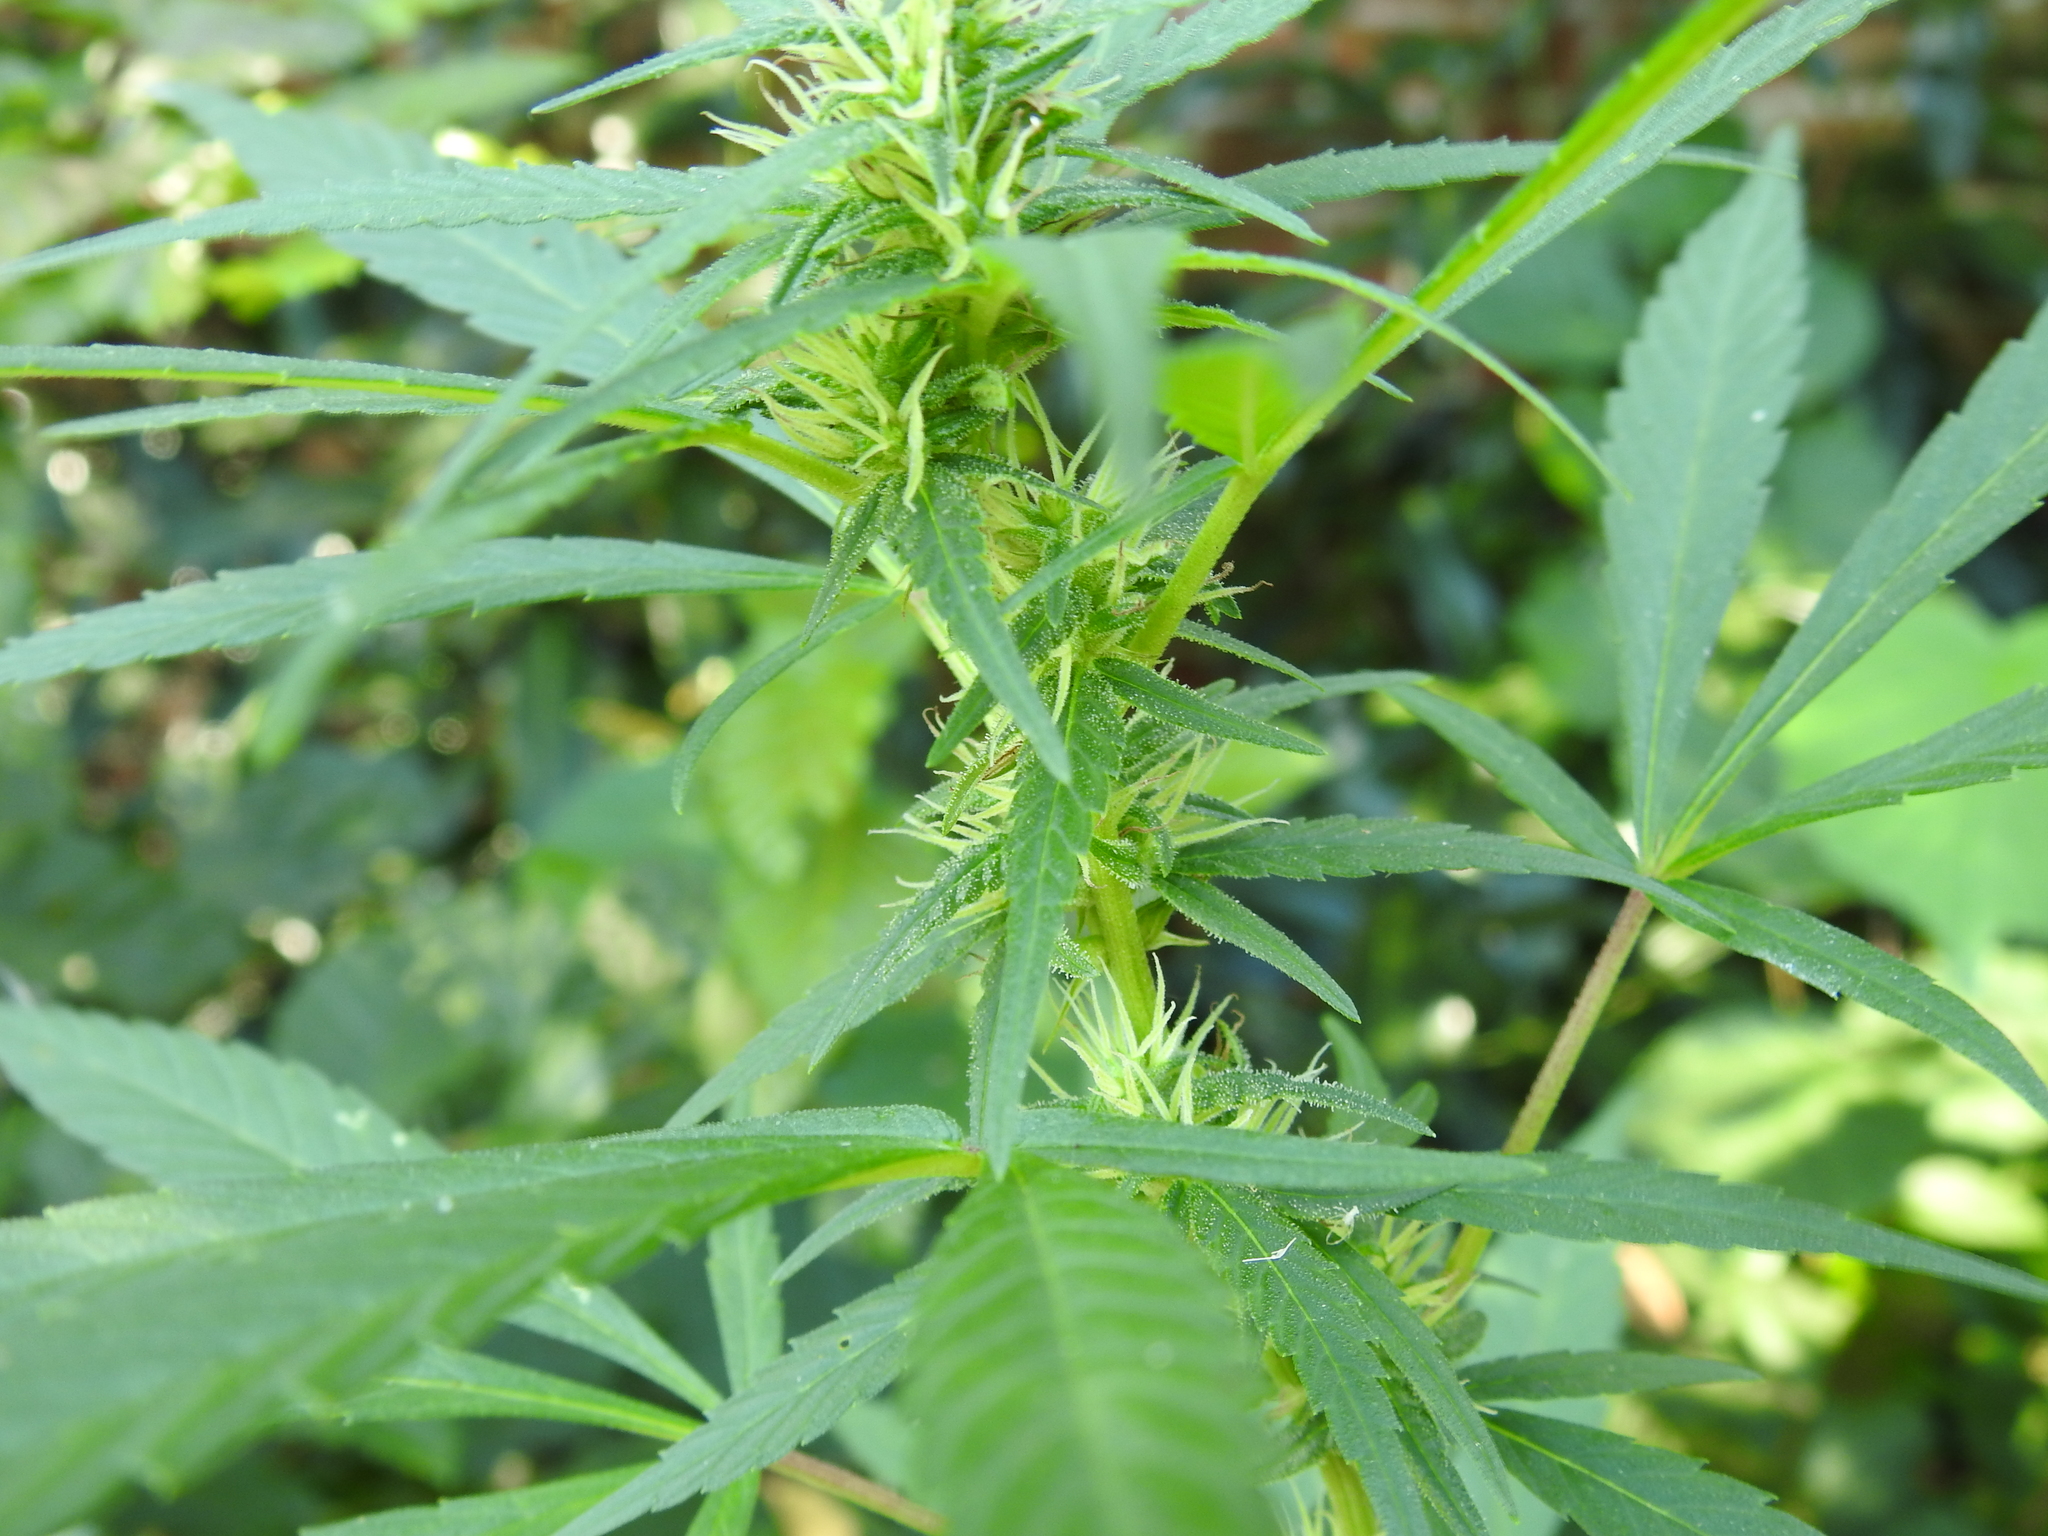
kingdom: Plantae
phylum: Tracheophyta
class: Magnoliopsida
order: Rosales
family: Cannabaceae
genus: Cannabis
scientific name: Cannabis sativa
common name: Hemp
